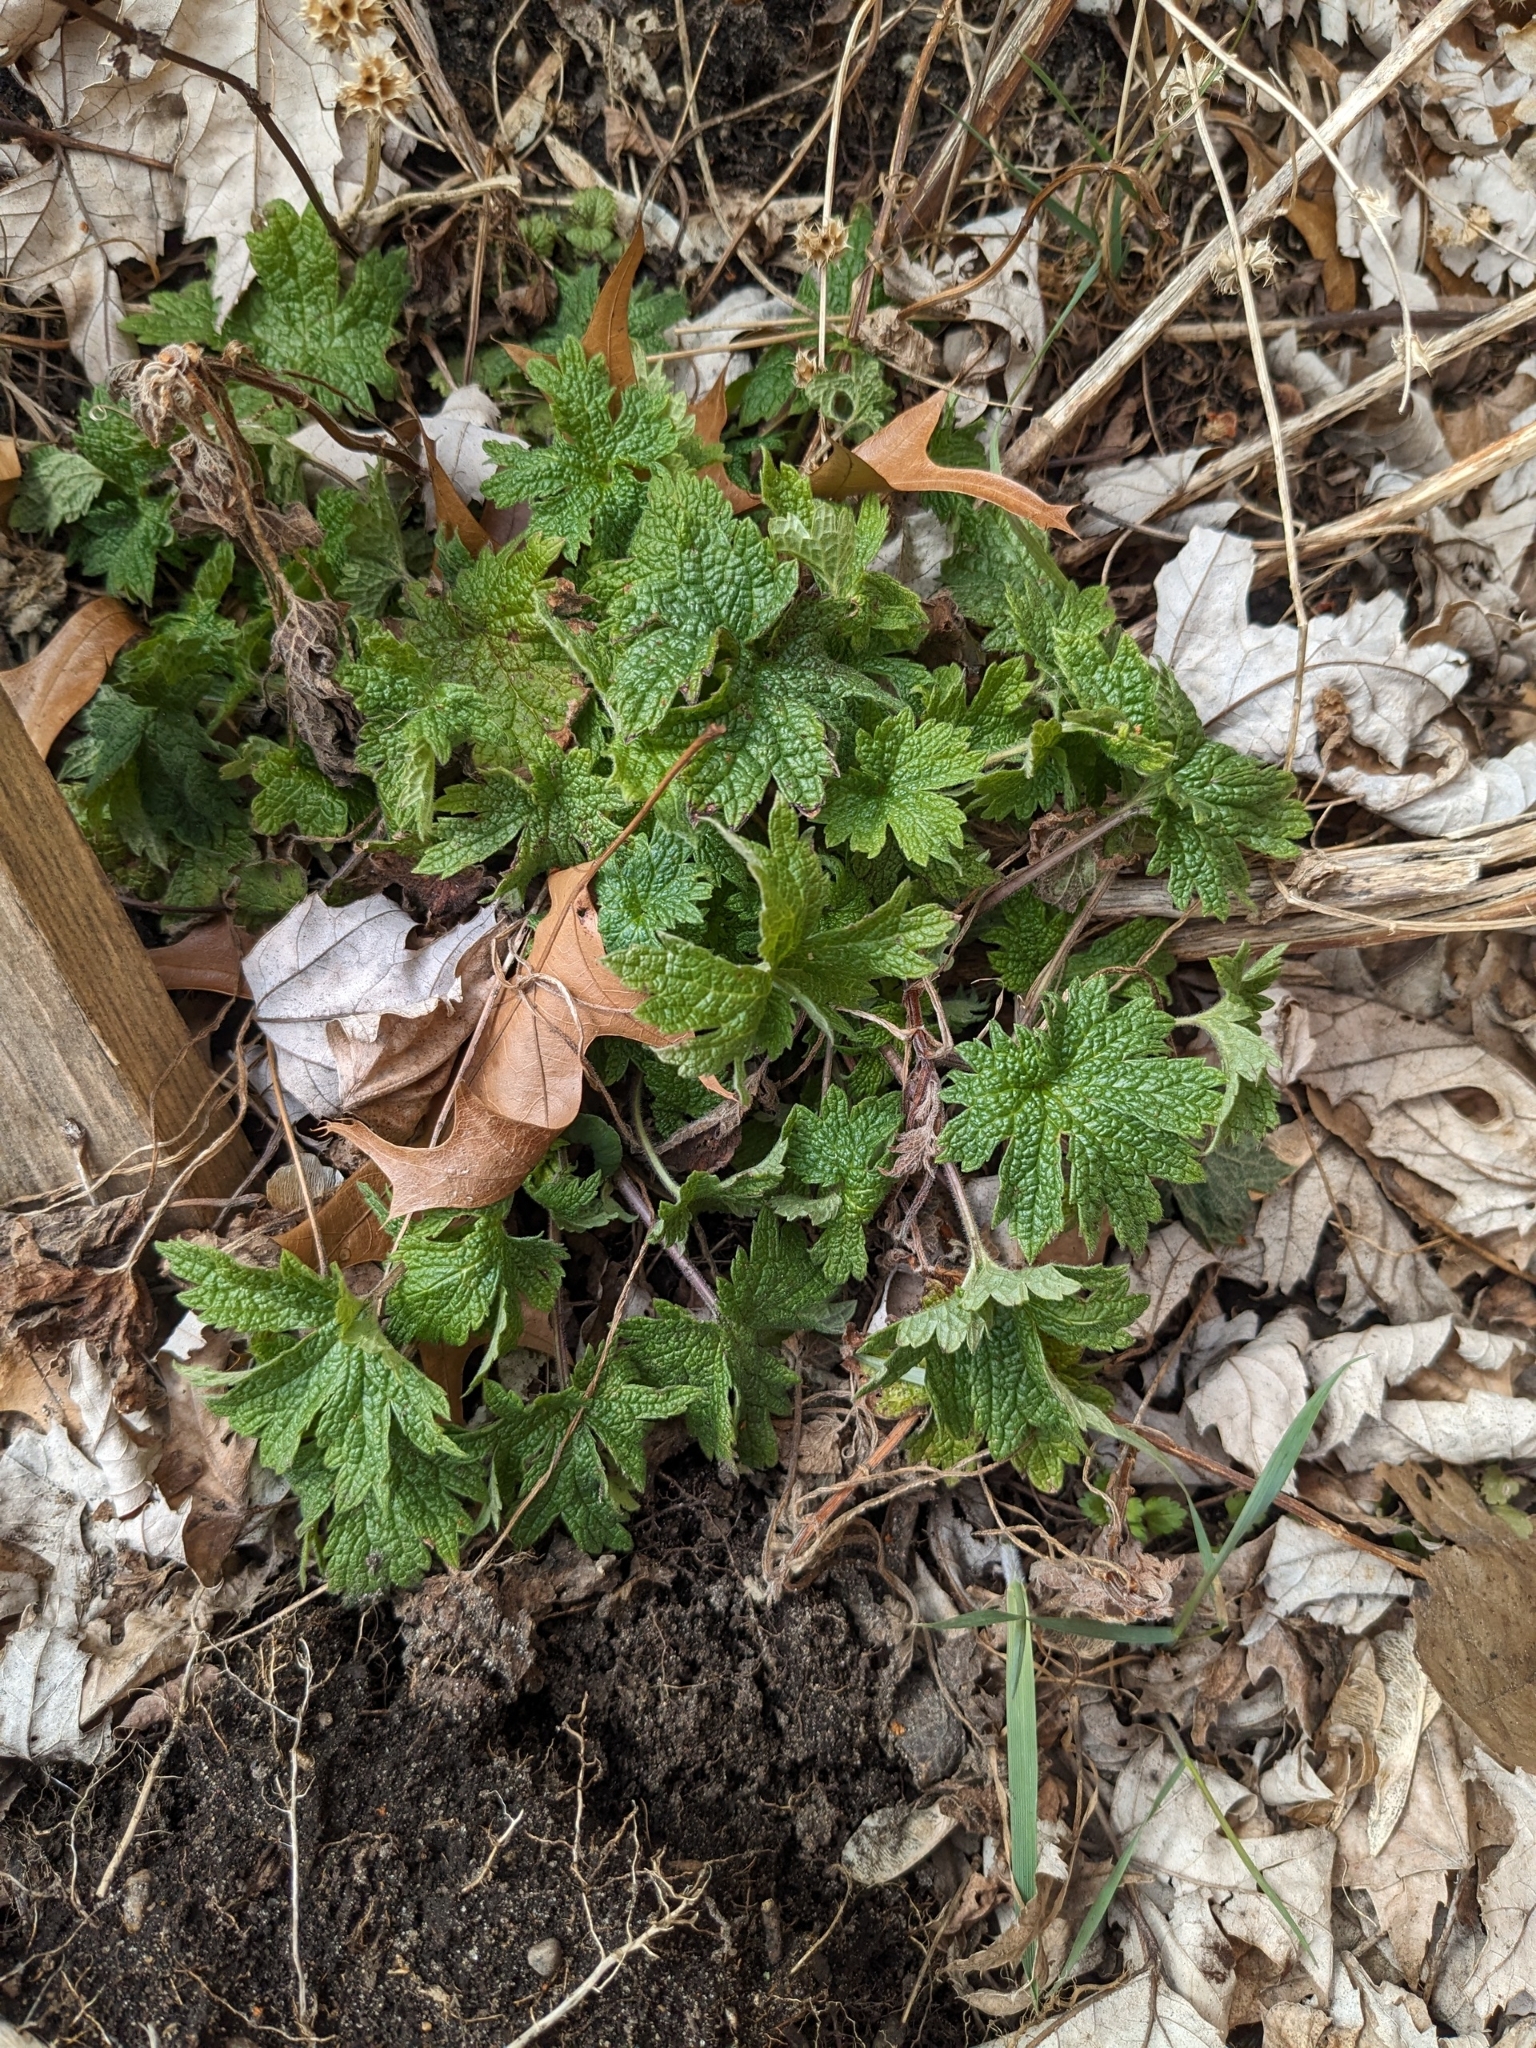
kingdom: Plantae
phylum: Tracheophyta
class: Magnoliopsida
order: Lamiales
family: Lamiaceae
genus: Leonurus
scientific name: Leonurus cardiaca
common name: Motherwort
